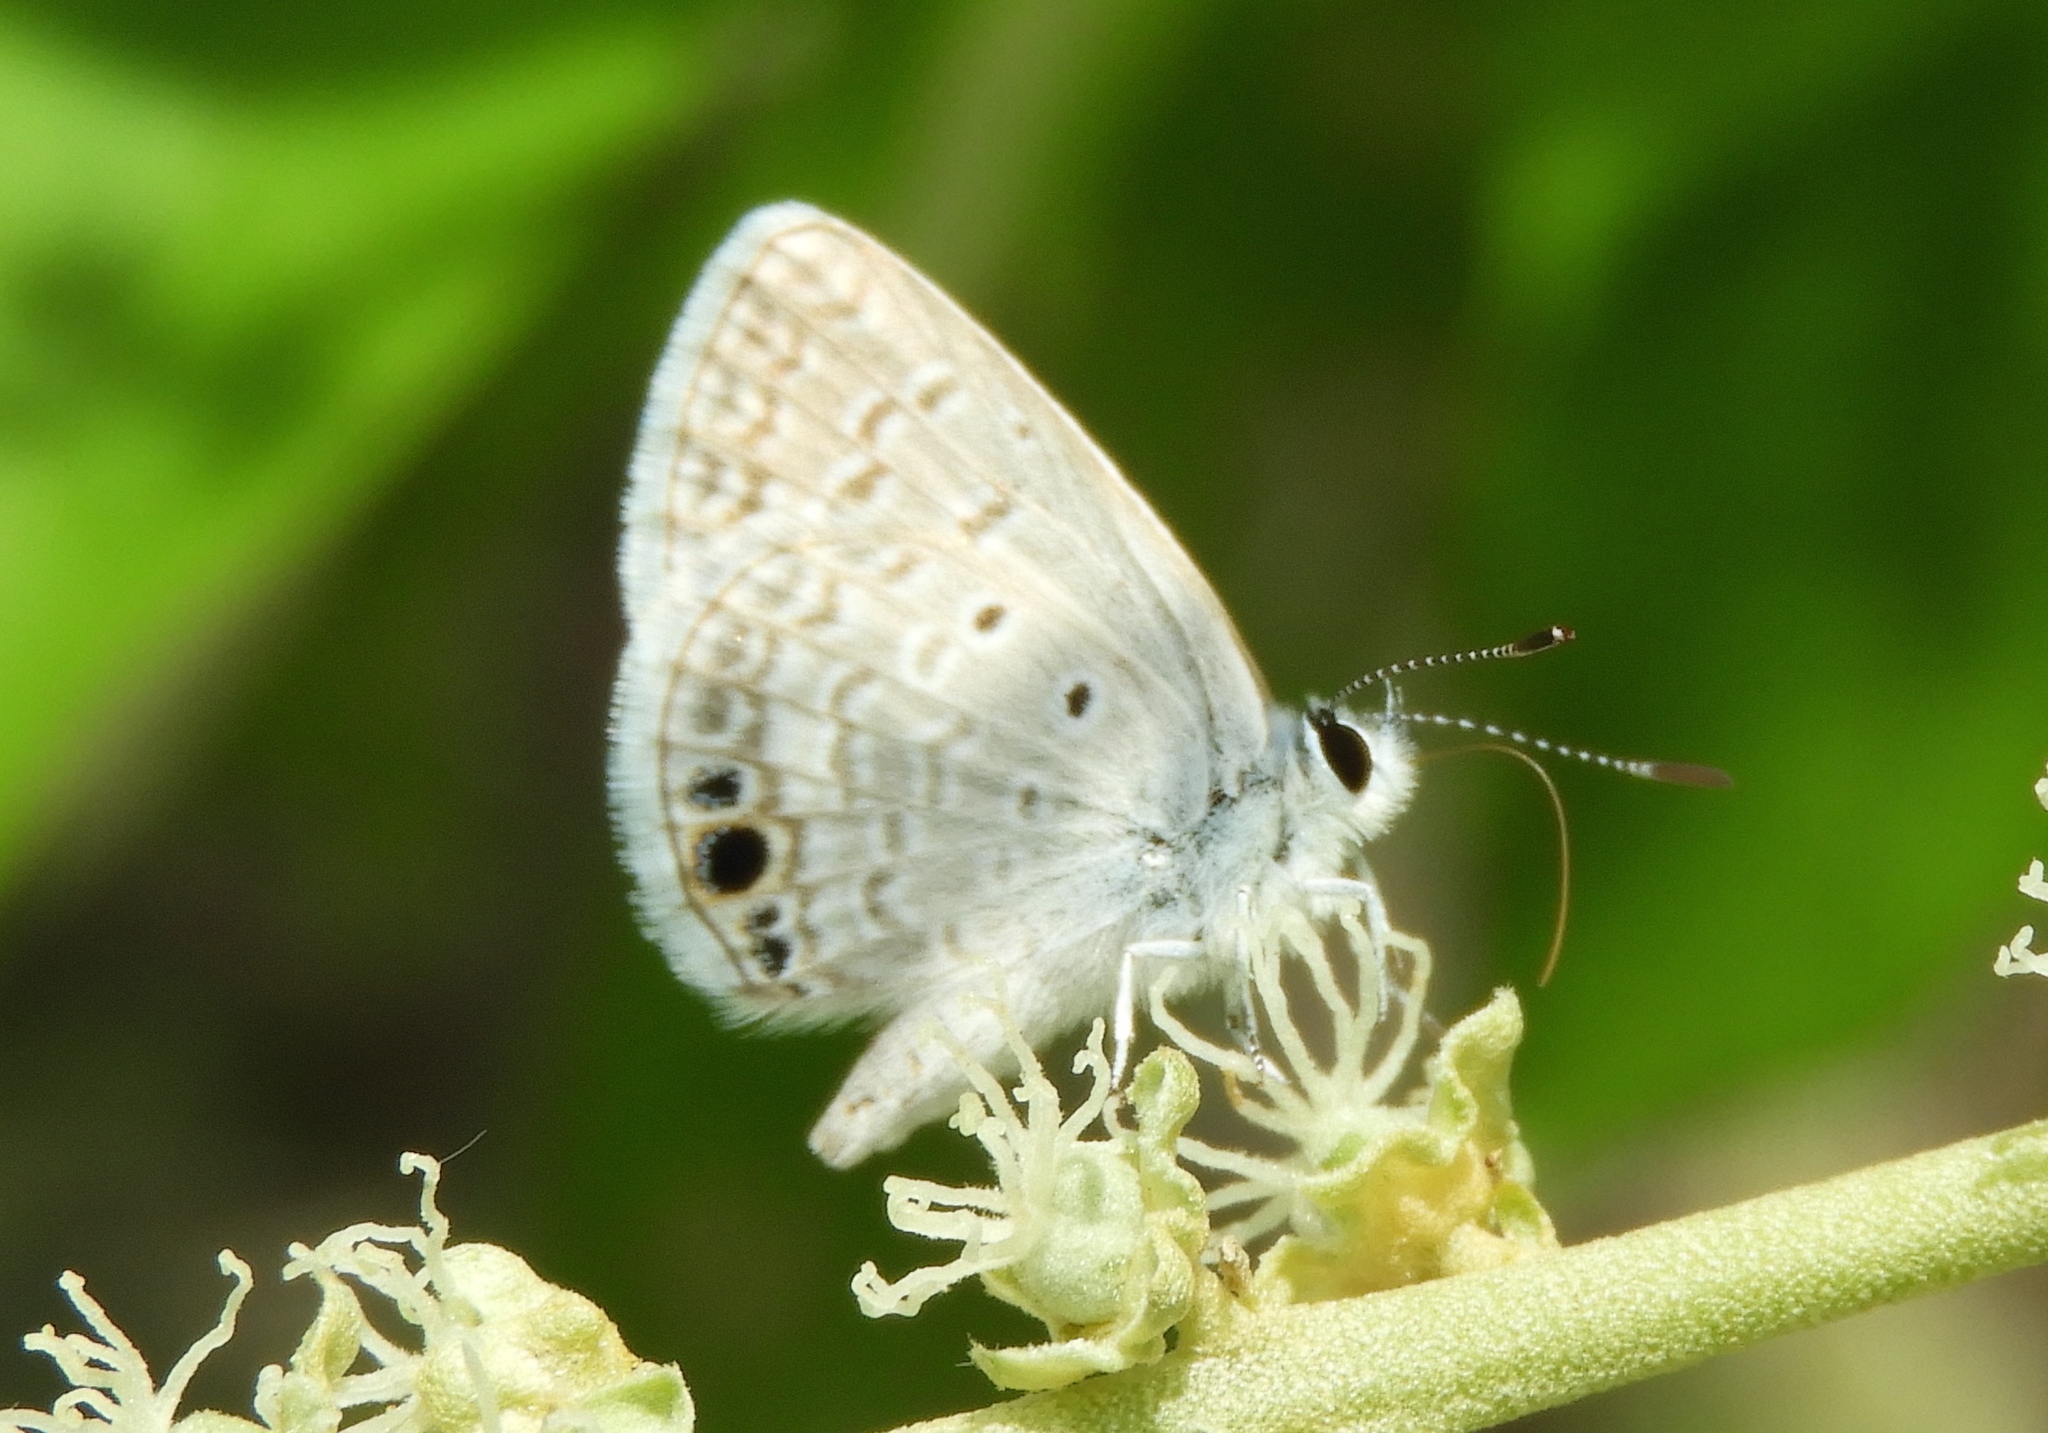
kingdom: Animalia
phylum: Arthropoda
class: Insecta
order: Lepidoptera
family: Lycaenidae
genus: Hemiargus
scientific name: Hemiargus ceraunus
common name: Ceraunus blue
